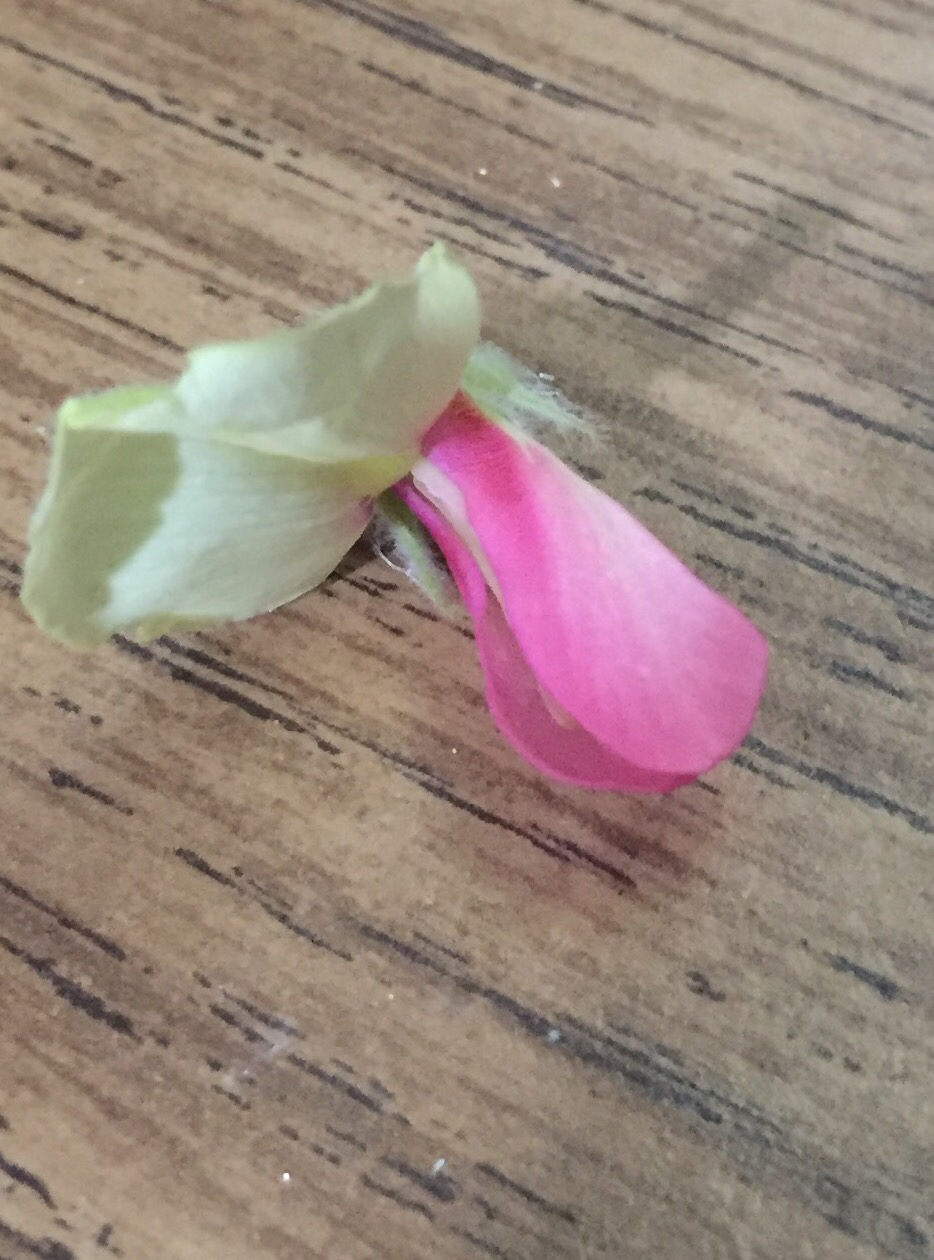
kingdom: Plantae
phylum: Tracheophyta
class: Magnoliopsida
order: Fabales
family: Fabaceae
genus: Tephrosia
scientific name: Tephrosia virginiana
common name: Rabbit-pea
